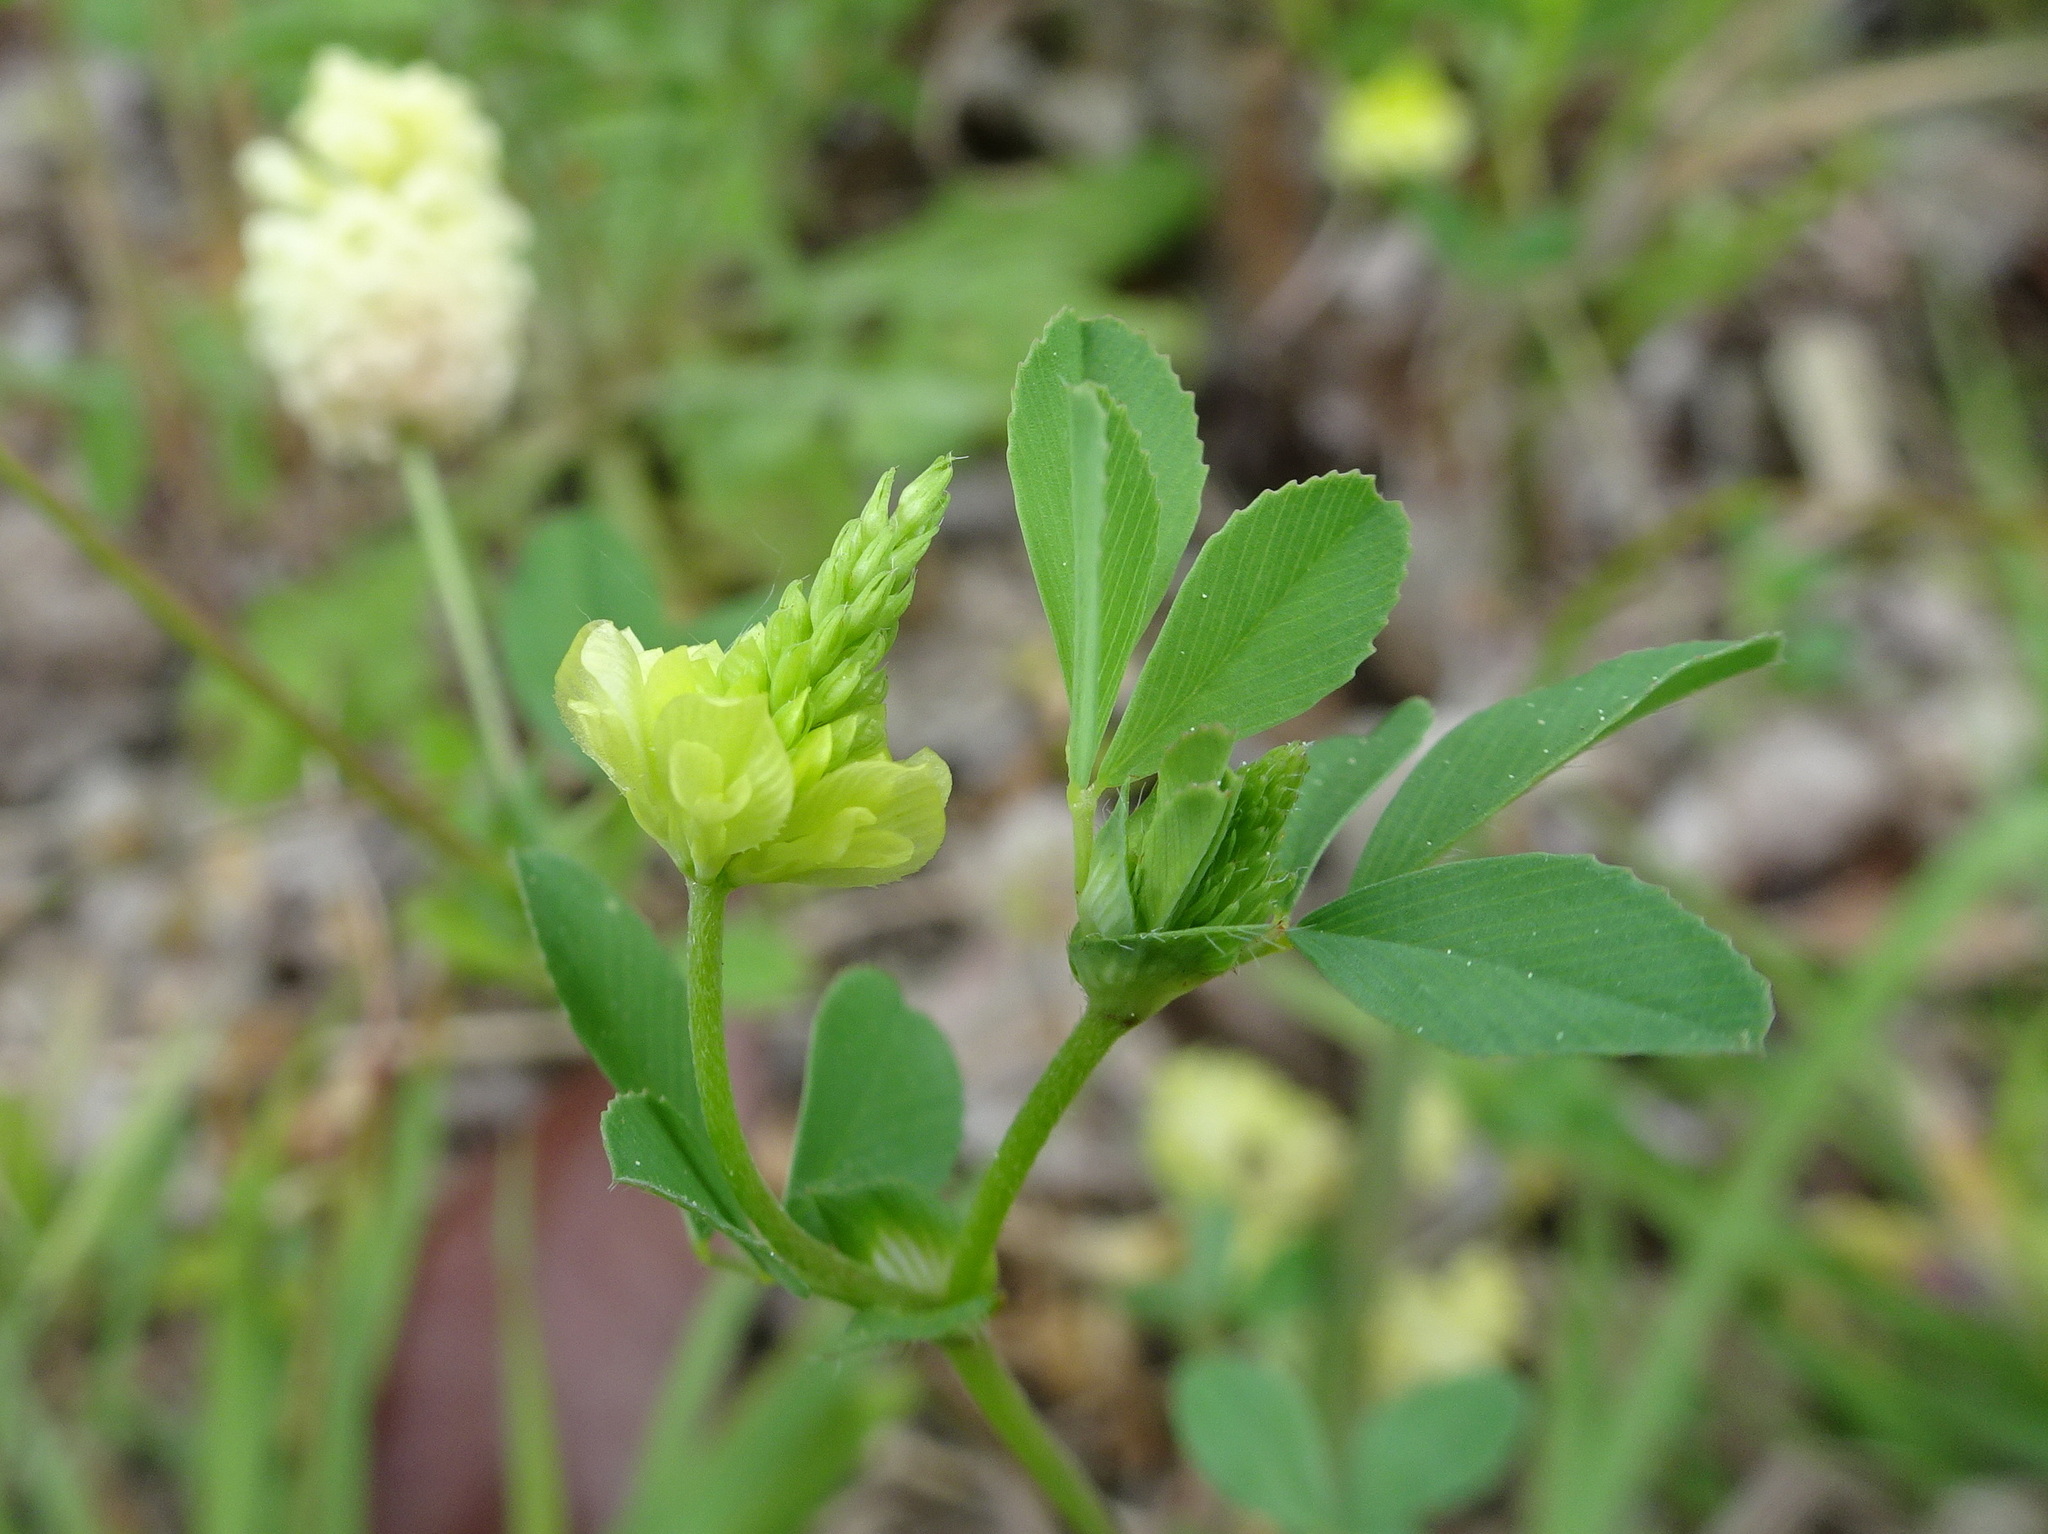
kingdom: Plantae
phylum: Tracheophyta
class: Magnoliopsida
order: Fabales
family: Fabaceae
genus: Trifolium
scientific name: Trifolium campestre
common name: Field clover
